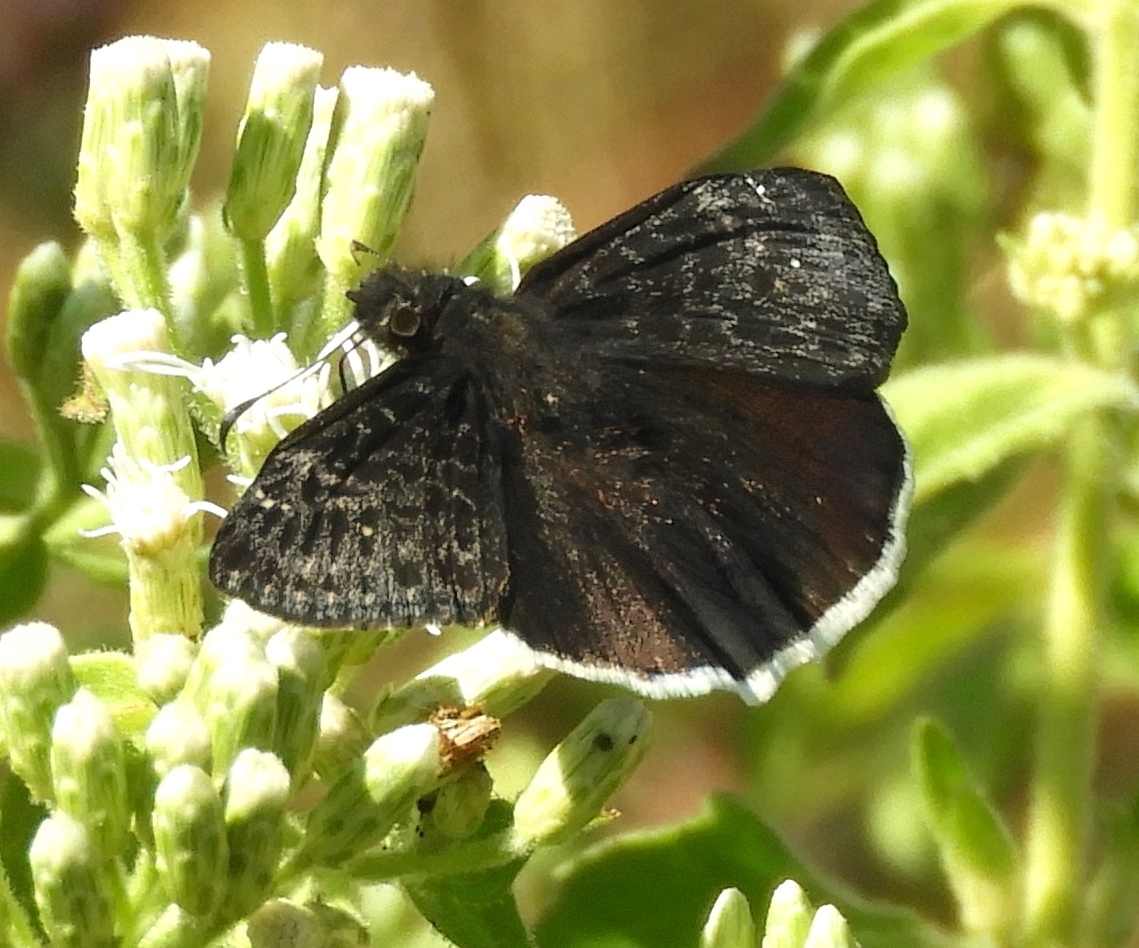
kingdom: Animalia
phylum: Arthropoda
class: Insecta
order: Lepidoptera
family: Hesperiidae
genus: Erynnis
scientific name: Erynnis
